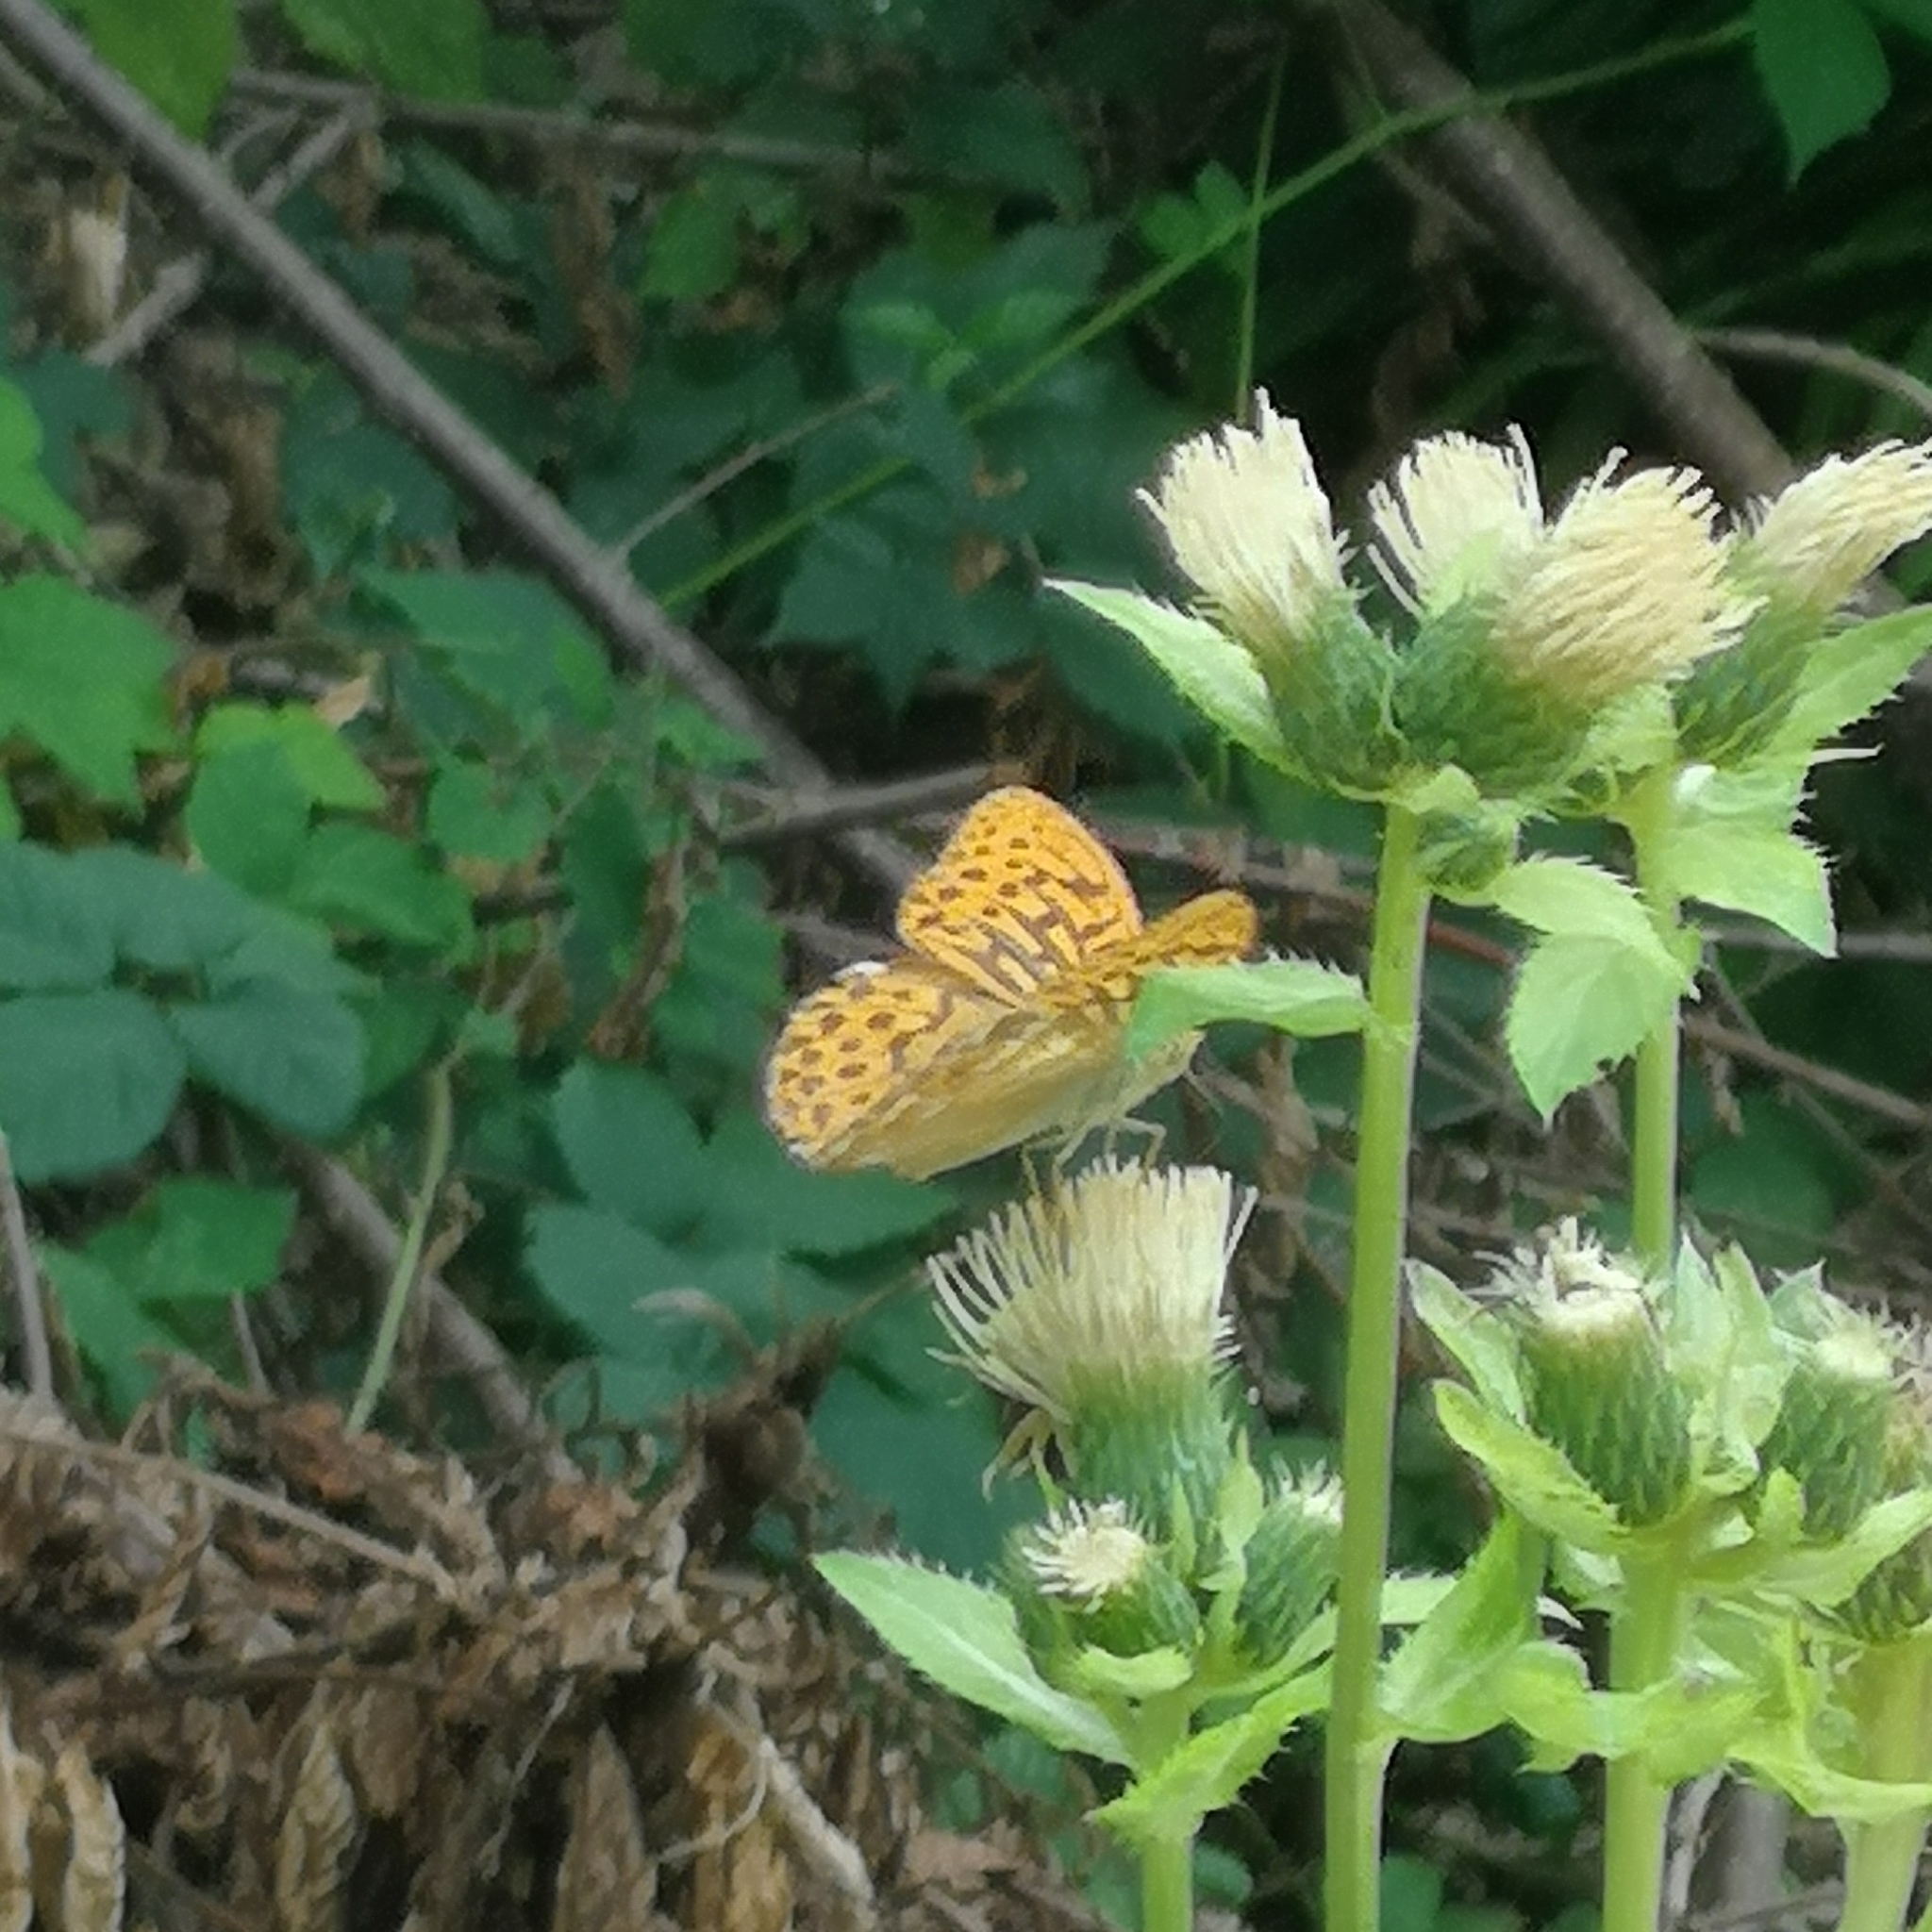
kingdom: Animalia
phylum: Arthropoda
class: Insecta
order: Lepidoptera
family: Nymphalidae
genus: Argynnis
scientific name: Argynnis paphia
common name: Silver-washed fritillary
